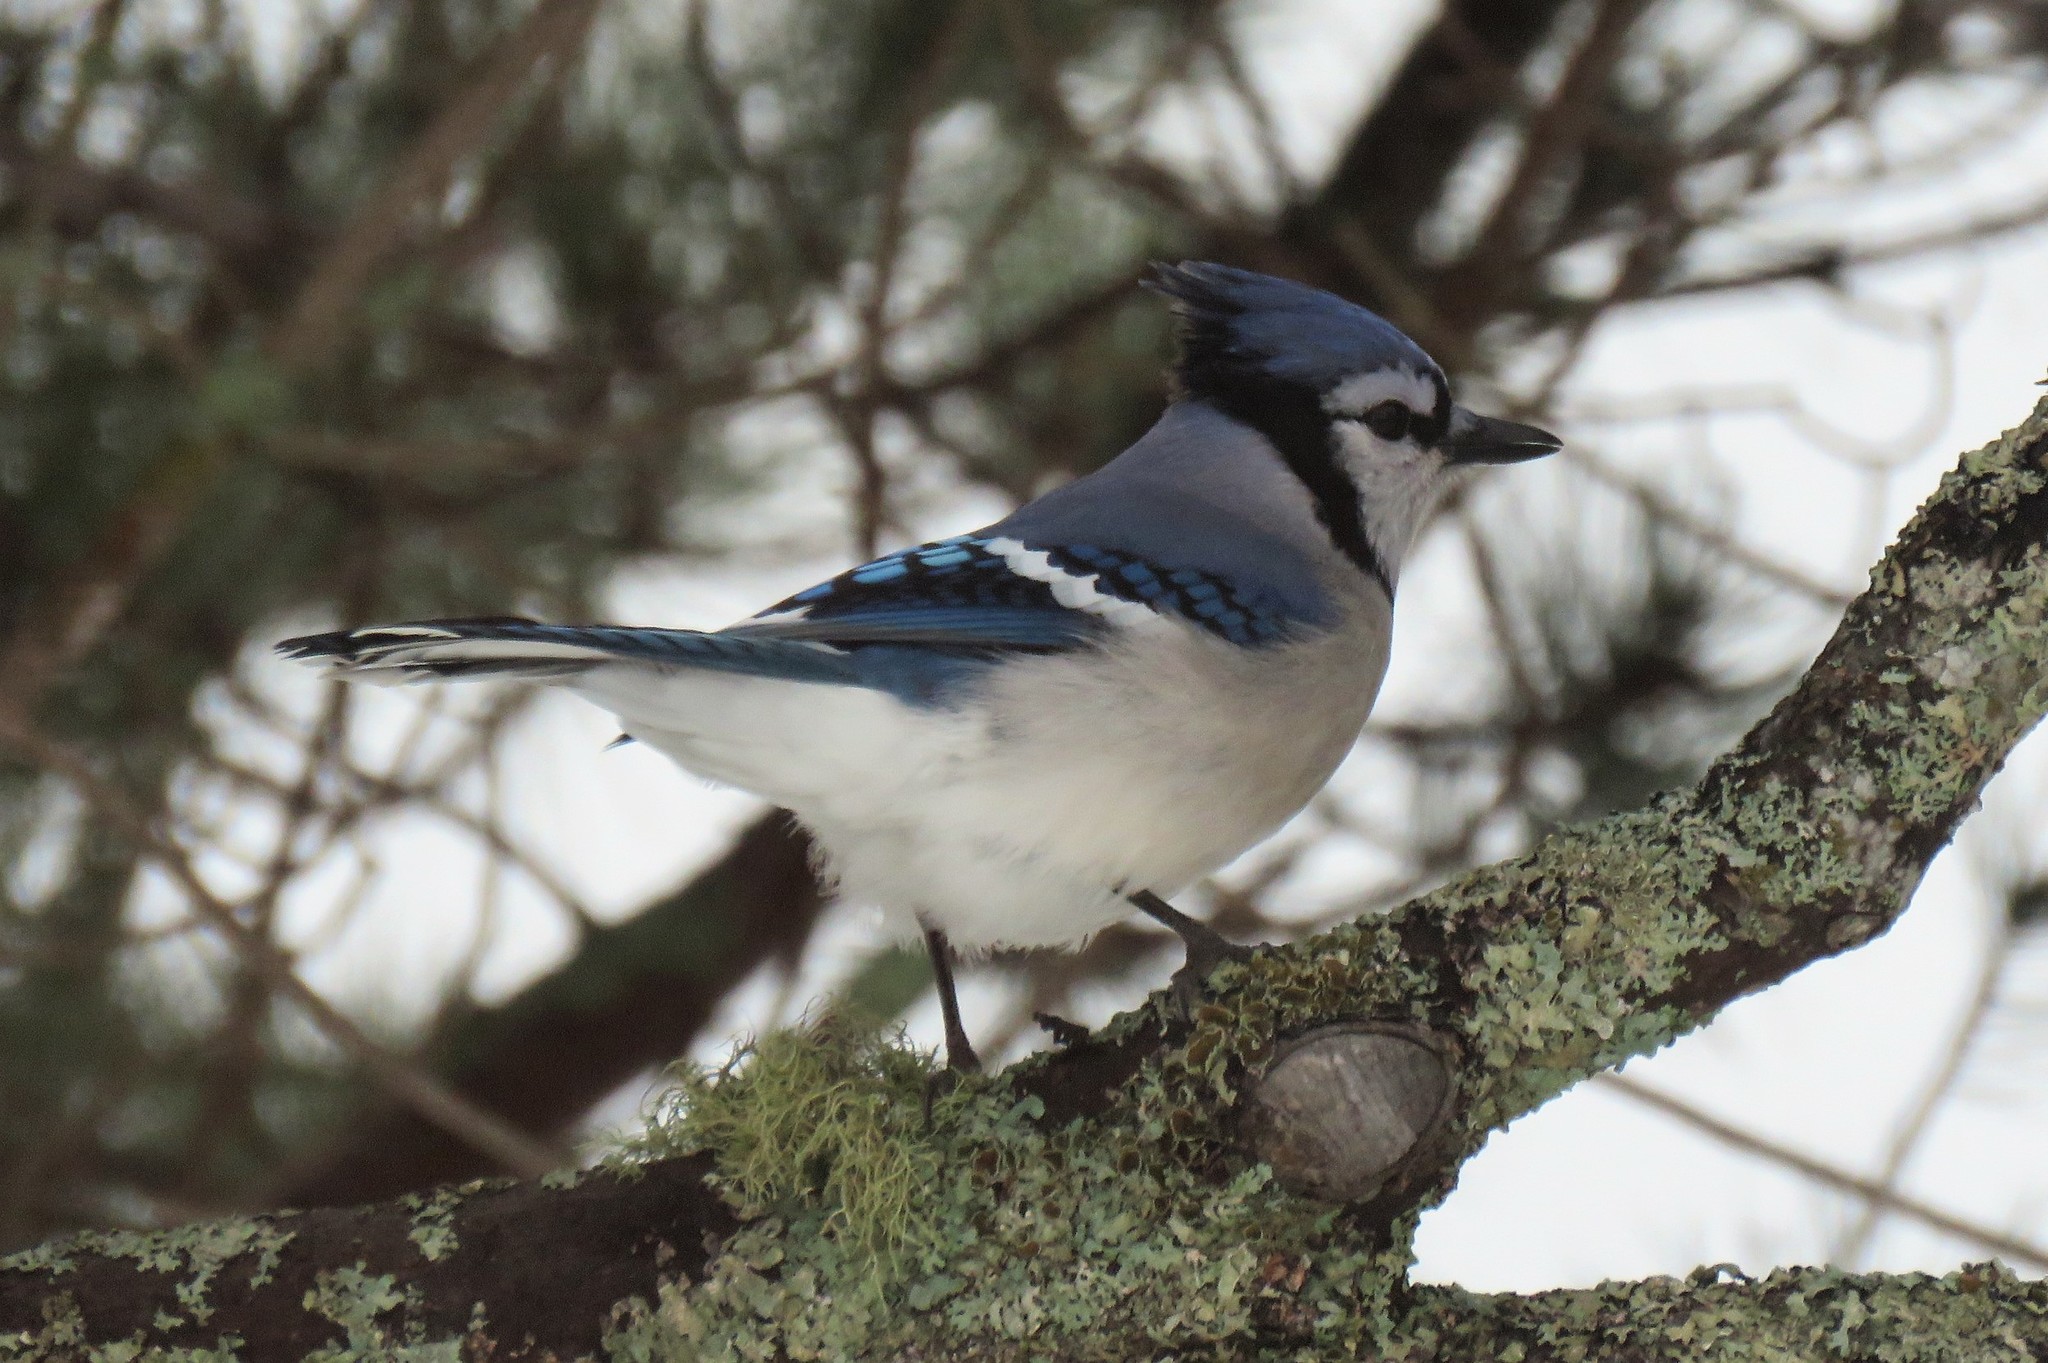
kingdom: Animalia
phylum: Chordata
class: Aves
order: Passeriformes
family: Corvidae
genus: Cyanocitta
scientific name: Cyanocitta cristata
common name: Blue jay
